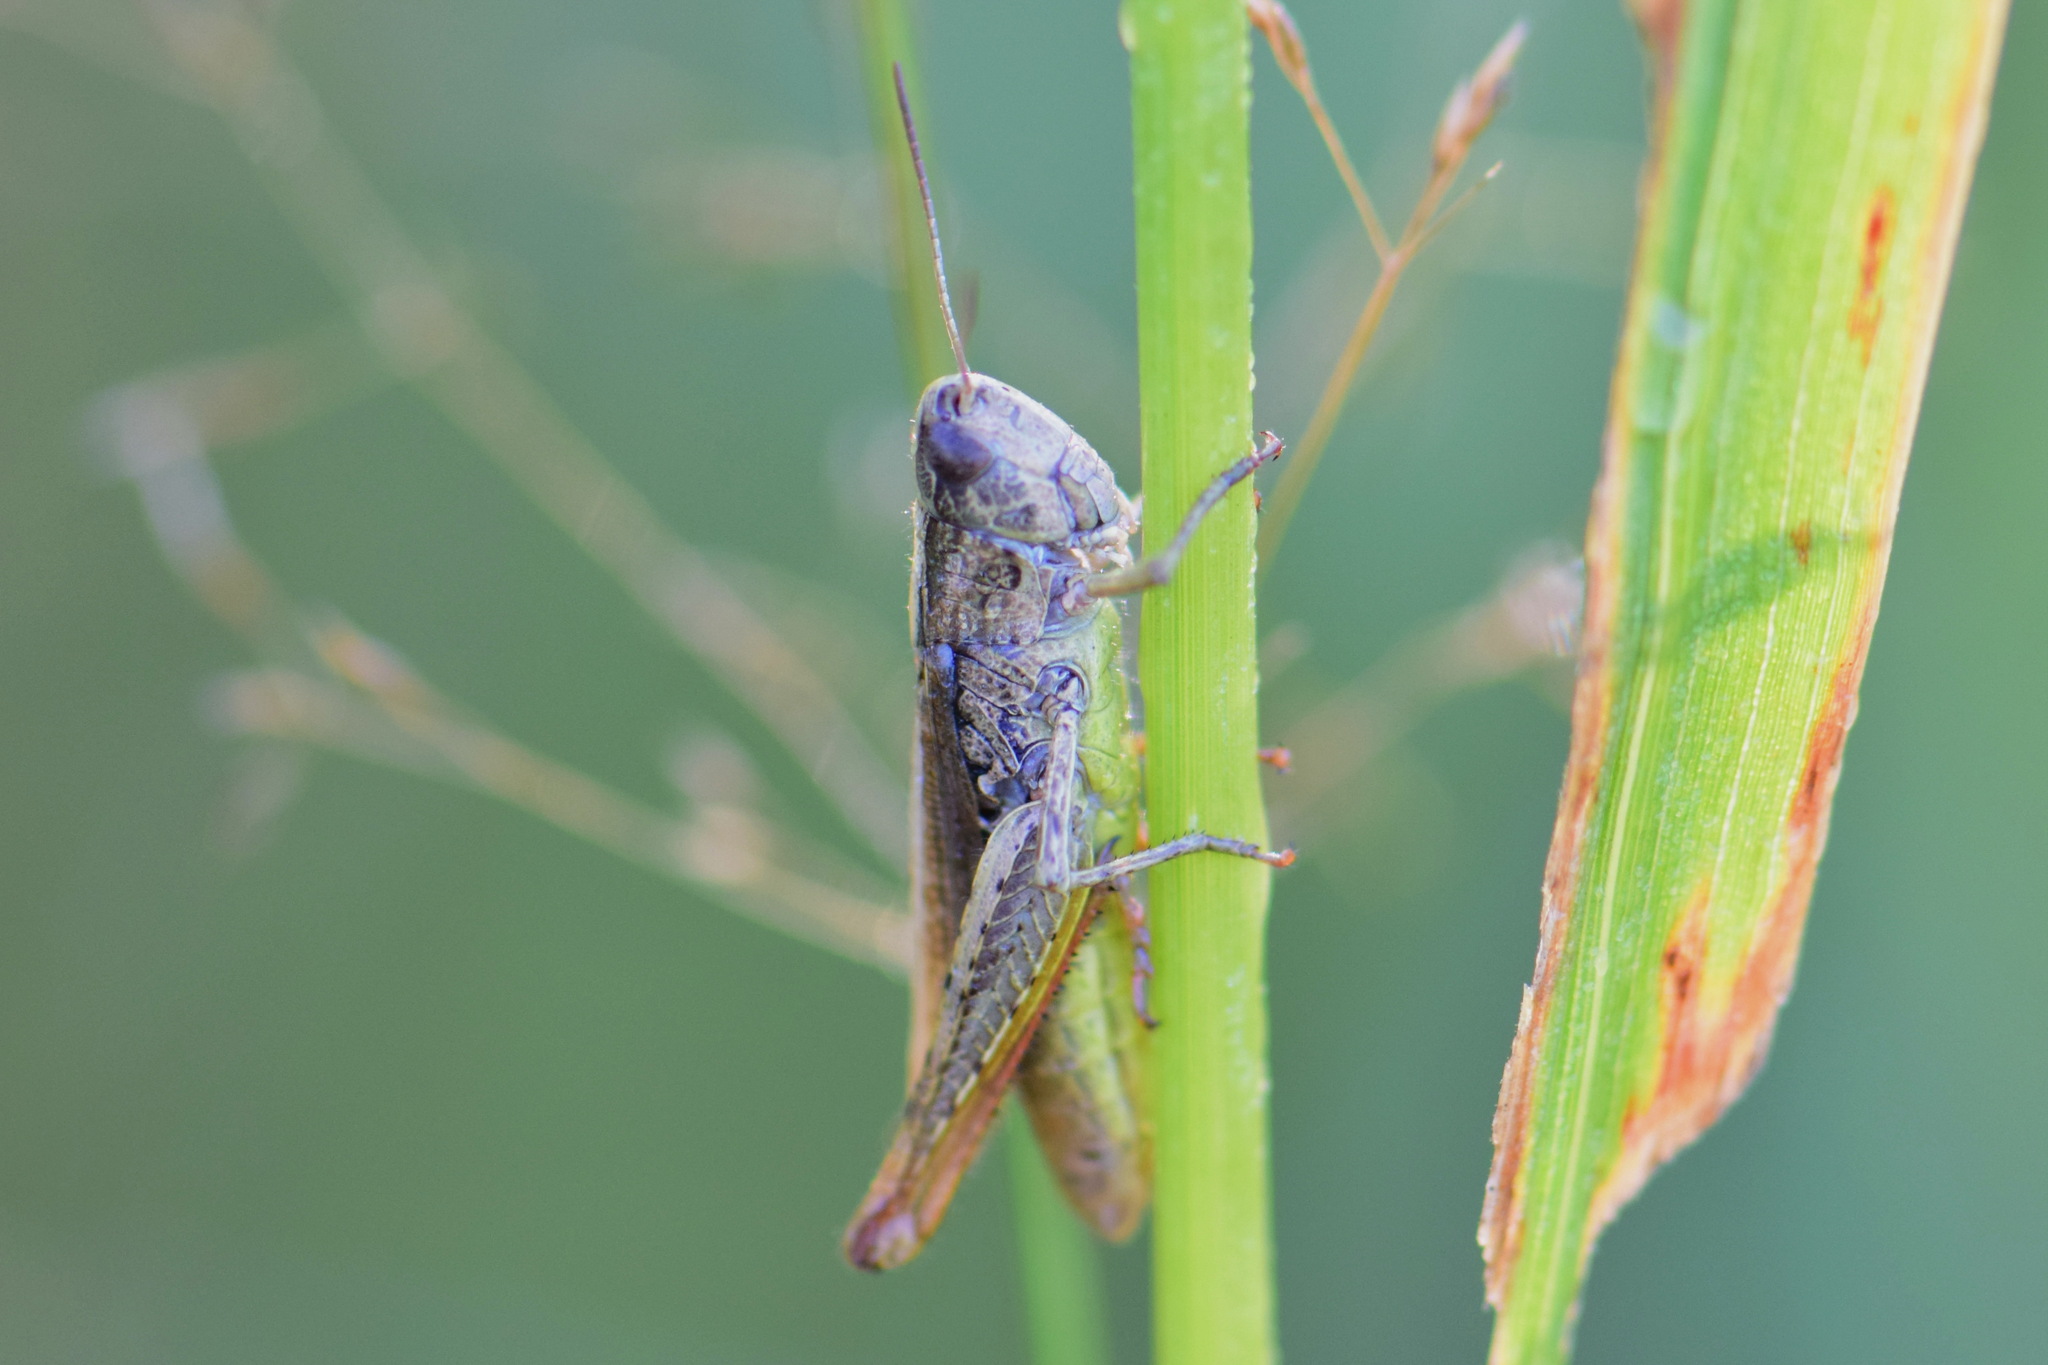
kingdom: Animalia
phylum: Arthropoda
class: Insecta
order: Orthoptera
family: Acrididae
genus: Chorthippus
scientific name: Chorthippus apricarius
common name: Upland field grasshopper
